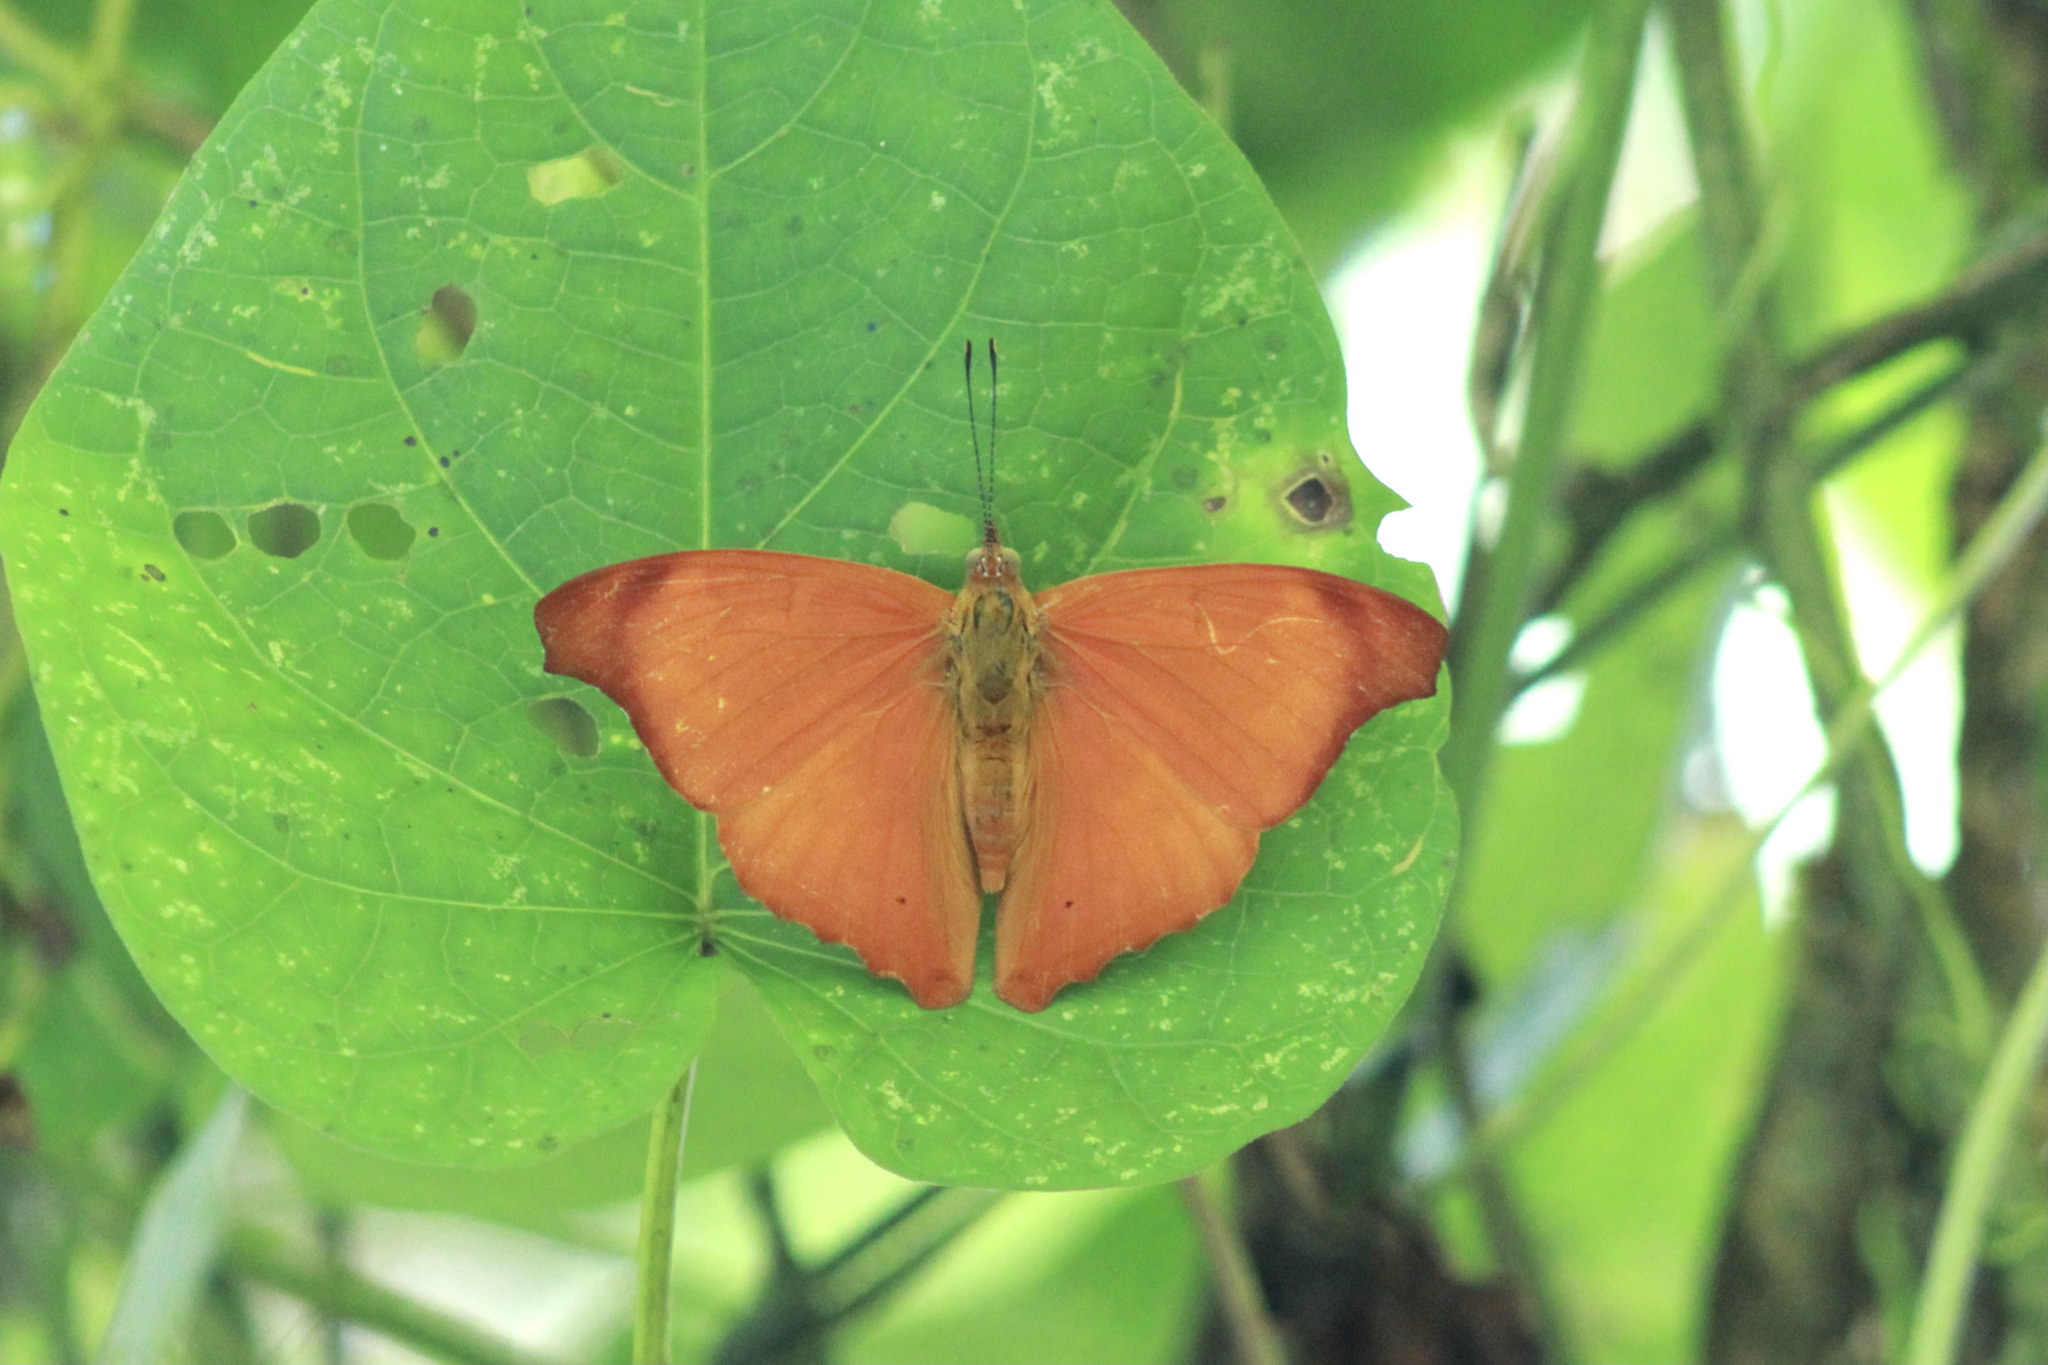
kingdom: Animalia
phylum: Arthropoda
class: Insecta
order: Lepidoptera
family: Nymphalidae
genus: Temenis
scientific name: Temenis laothoe
